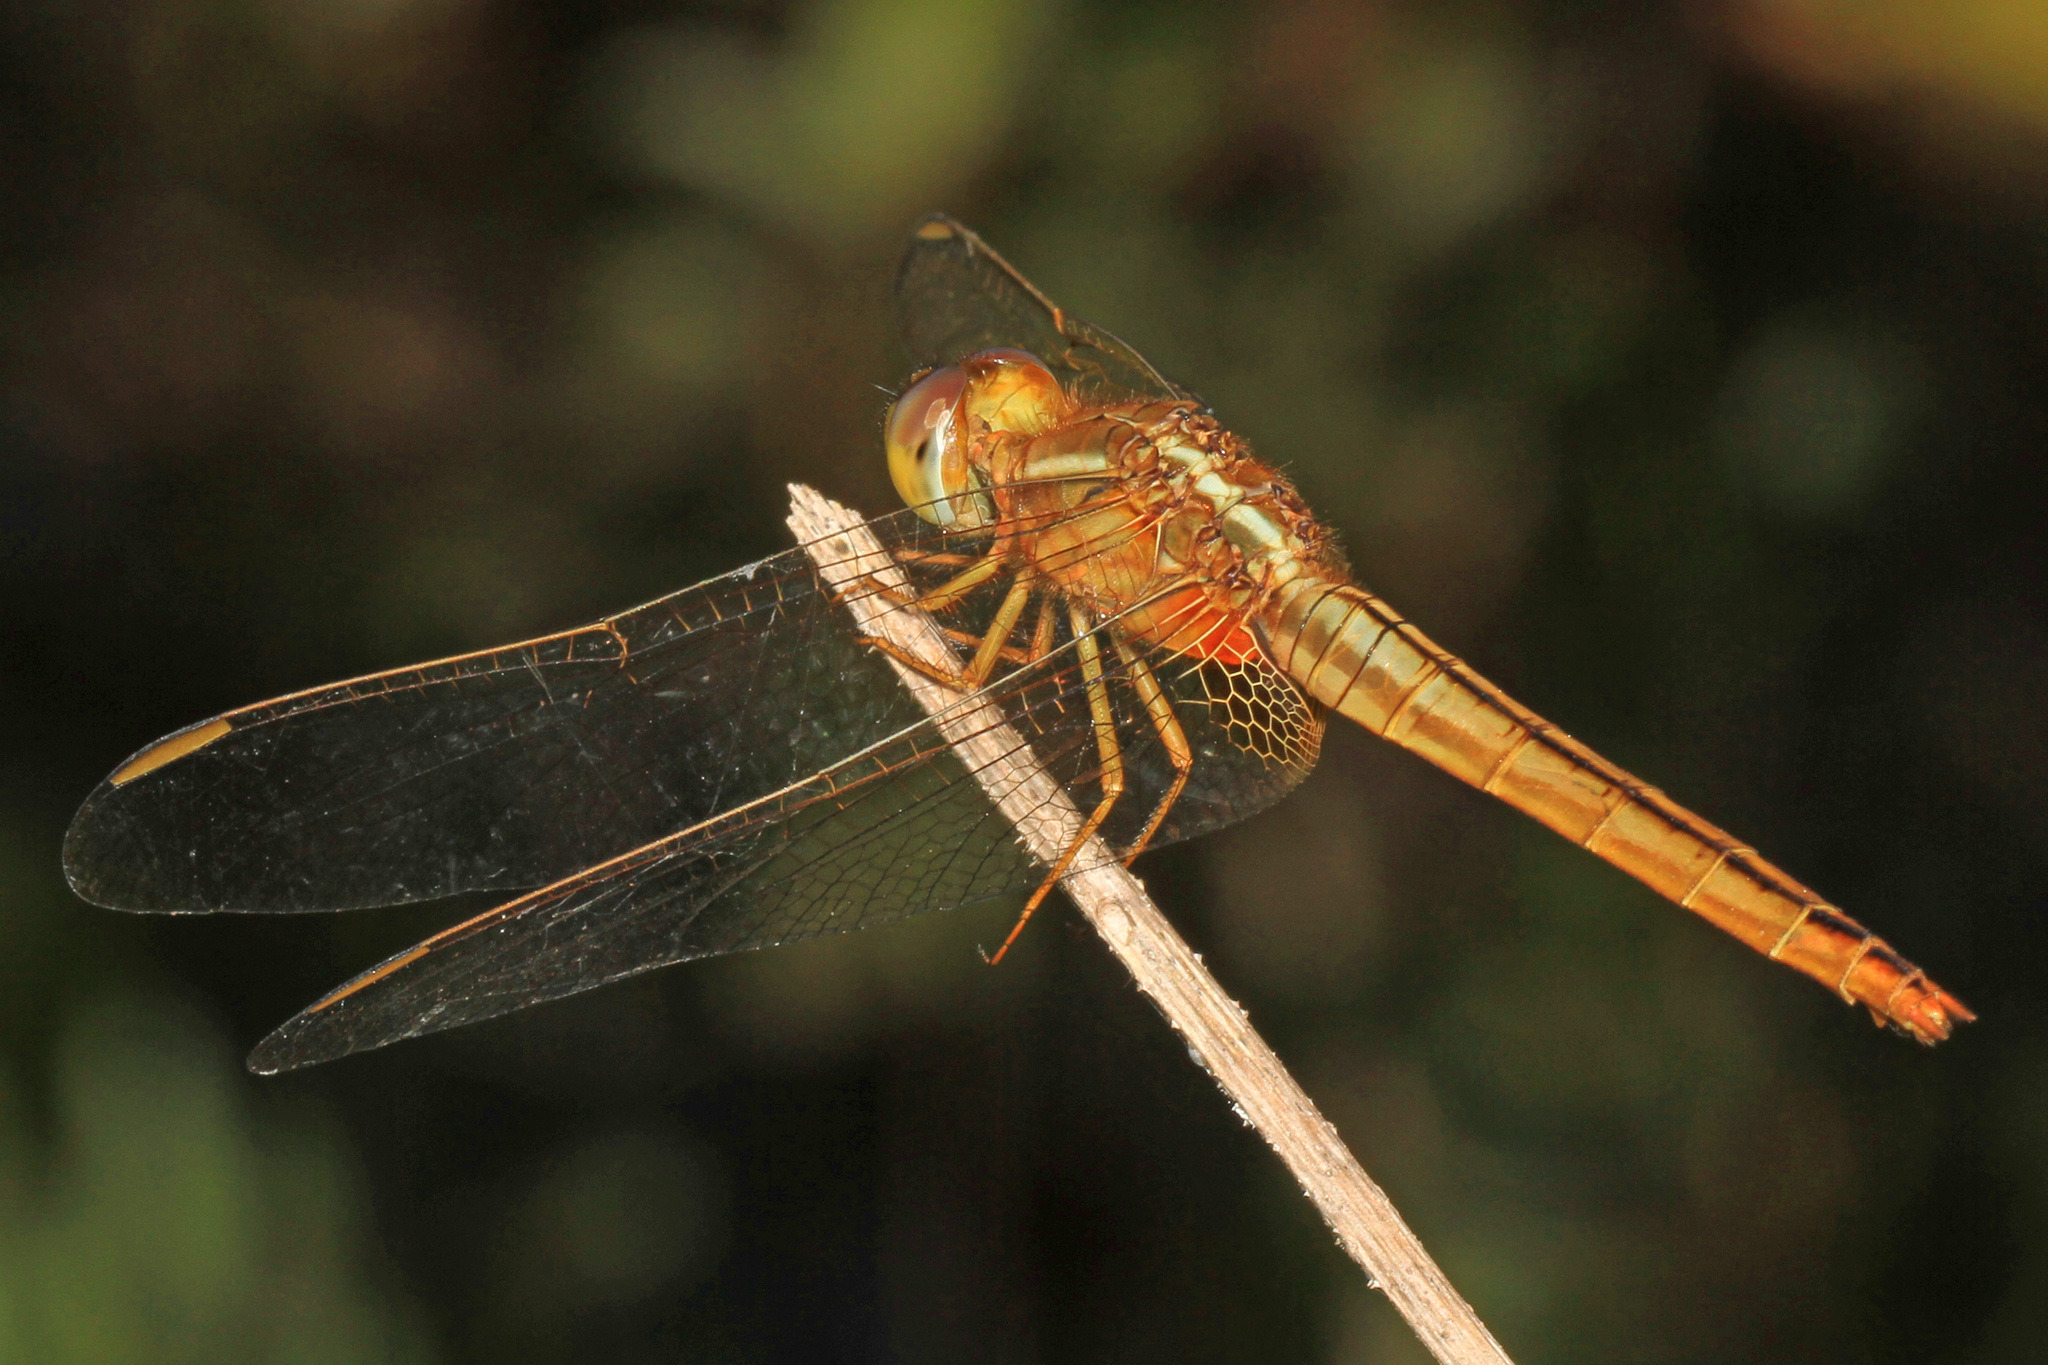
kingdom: Animalia
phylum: Arthropoda
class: Insecta
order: Odonata
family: Libellulidae
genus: Crocothemis
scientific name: Crocothemis servilia
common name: Scarlet skimmer
